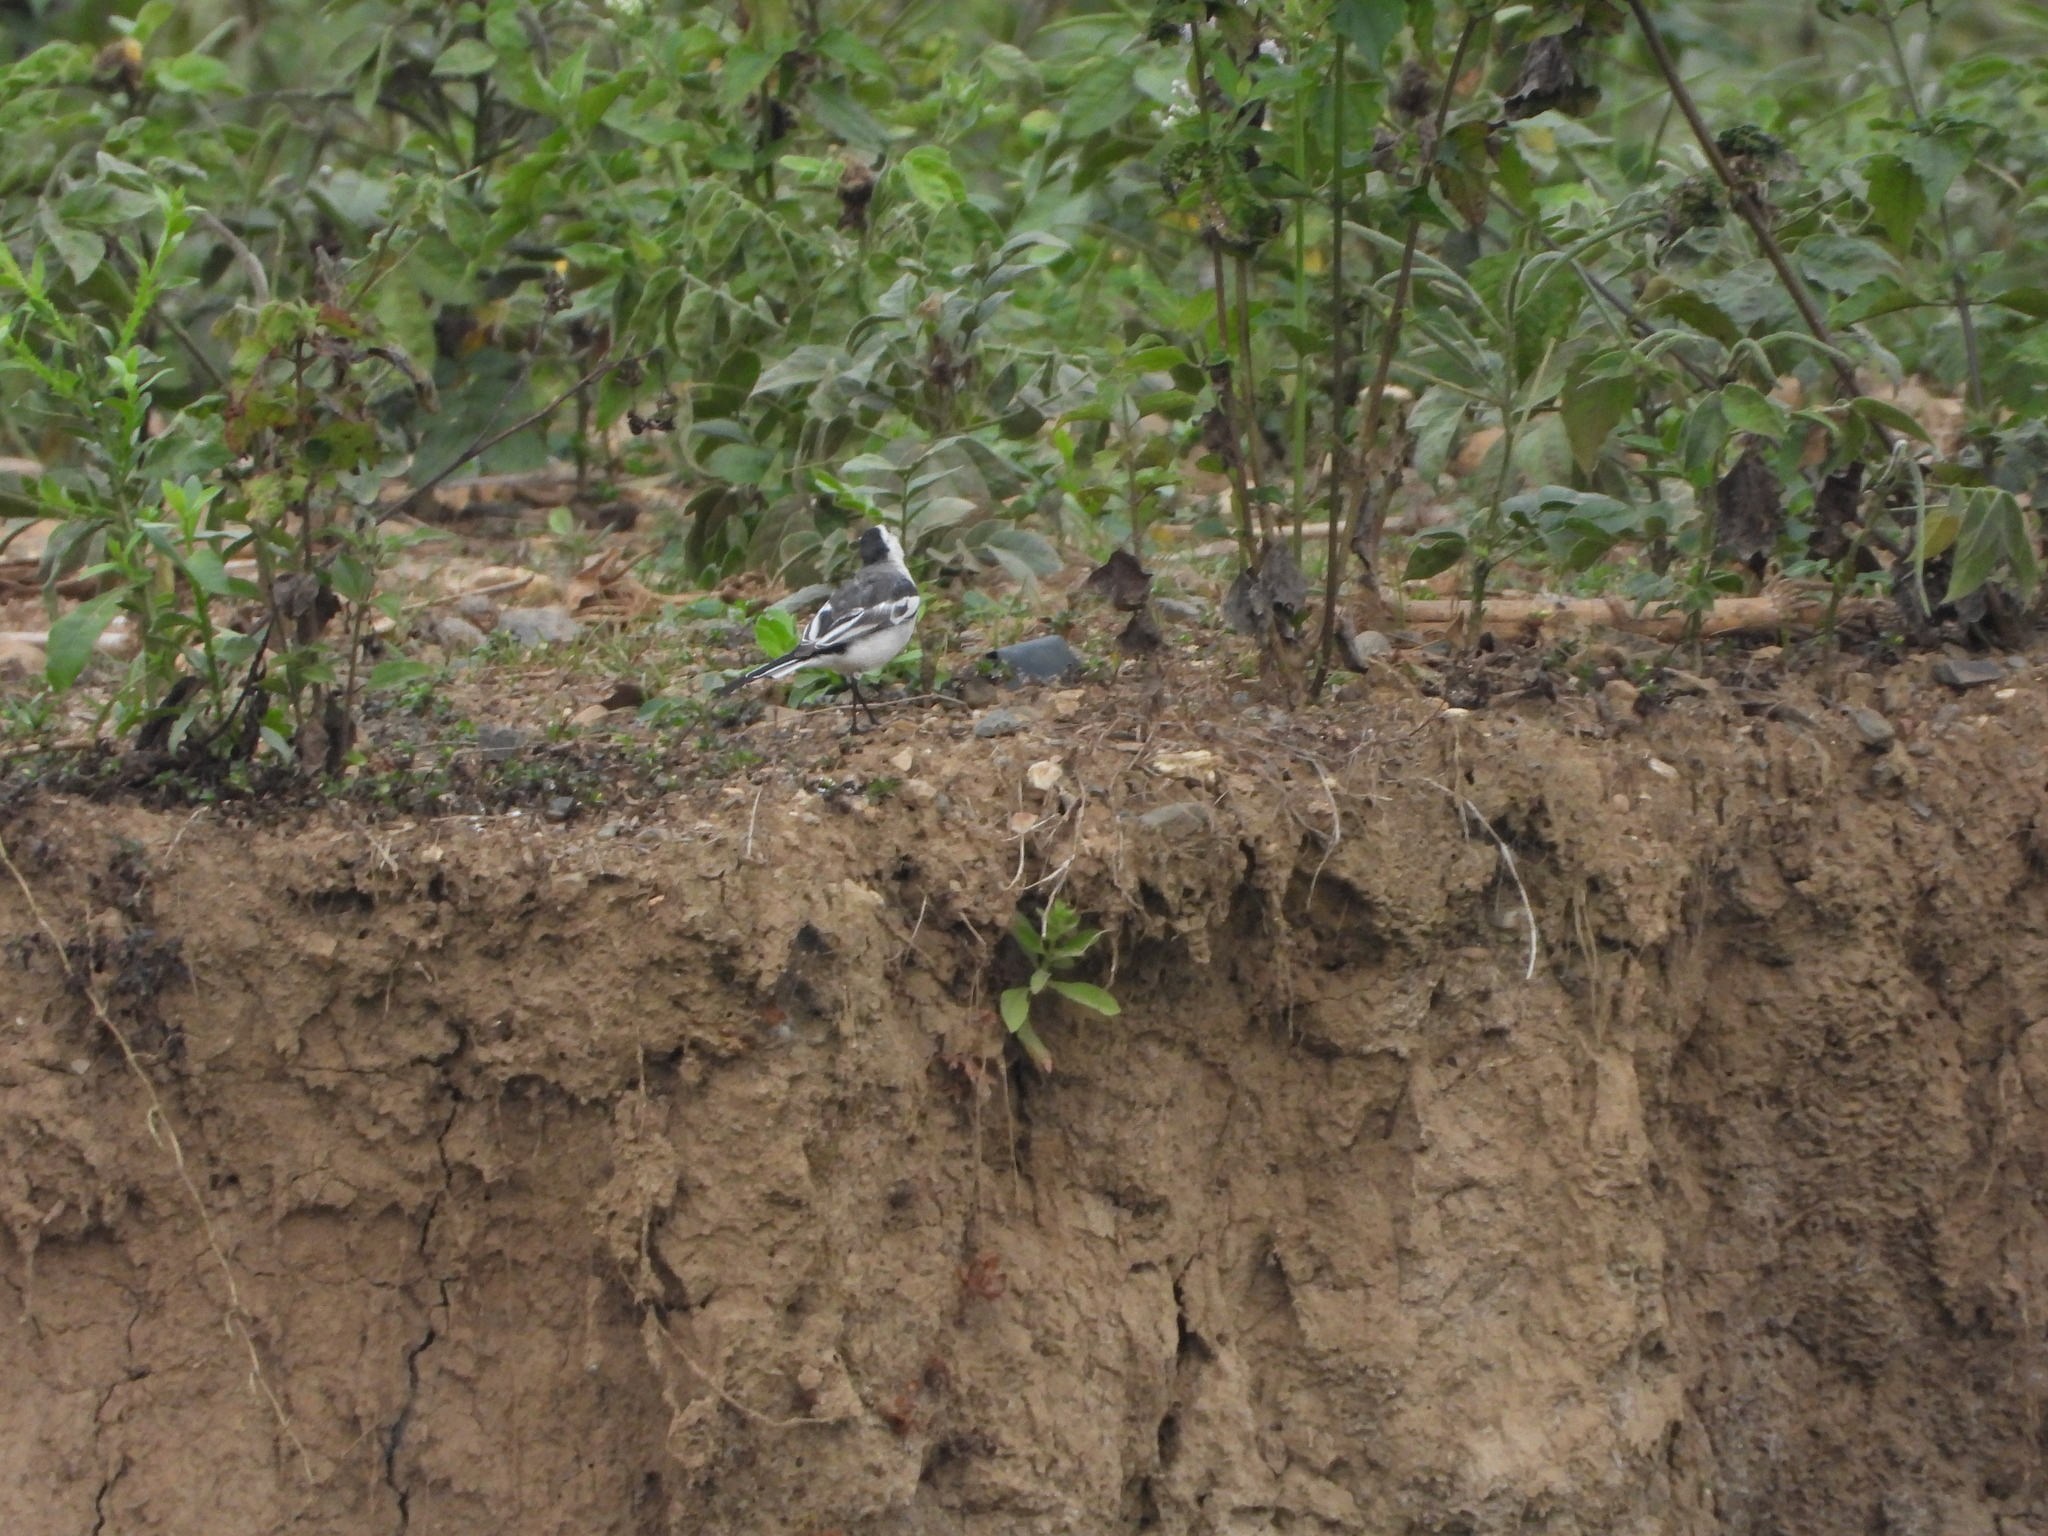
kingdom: Animalia
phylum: Chordata
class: Aves
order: Passeriformes
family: Motacillidae
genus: Motacilla
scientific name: Motacilla alba
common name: White wagtail
